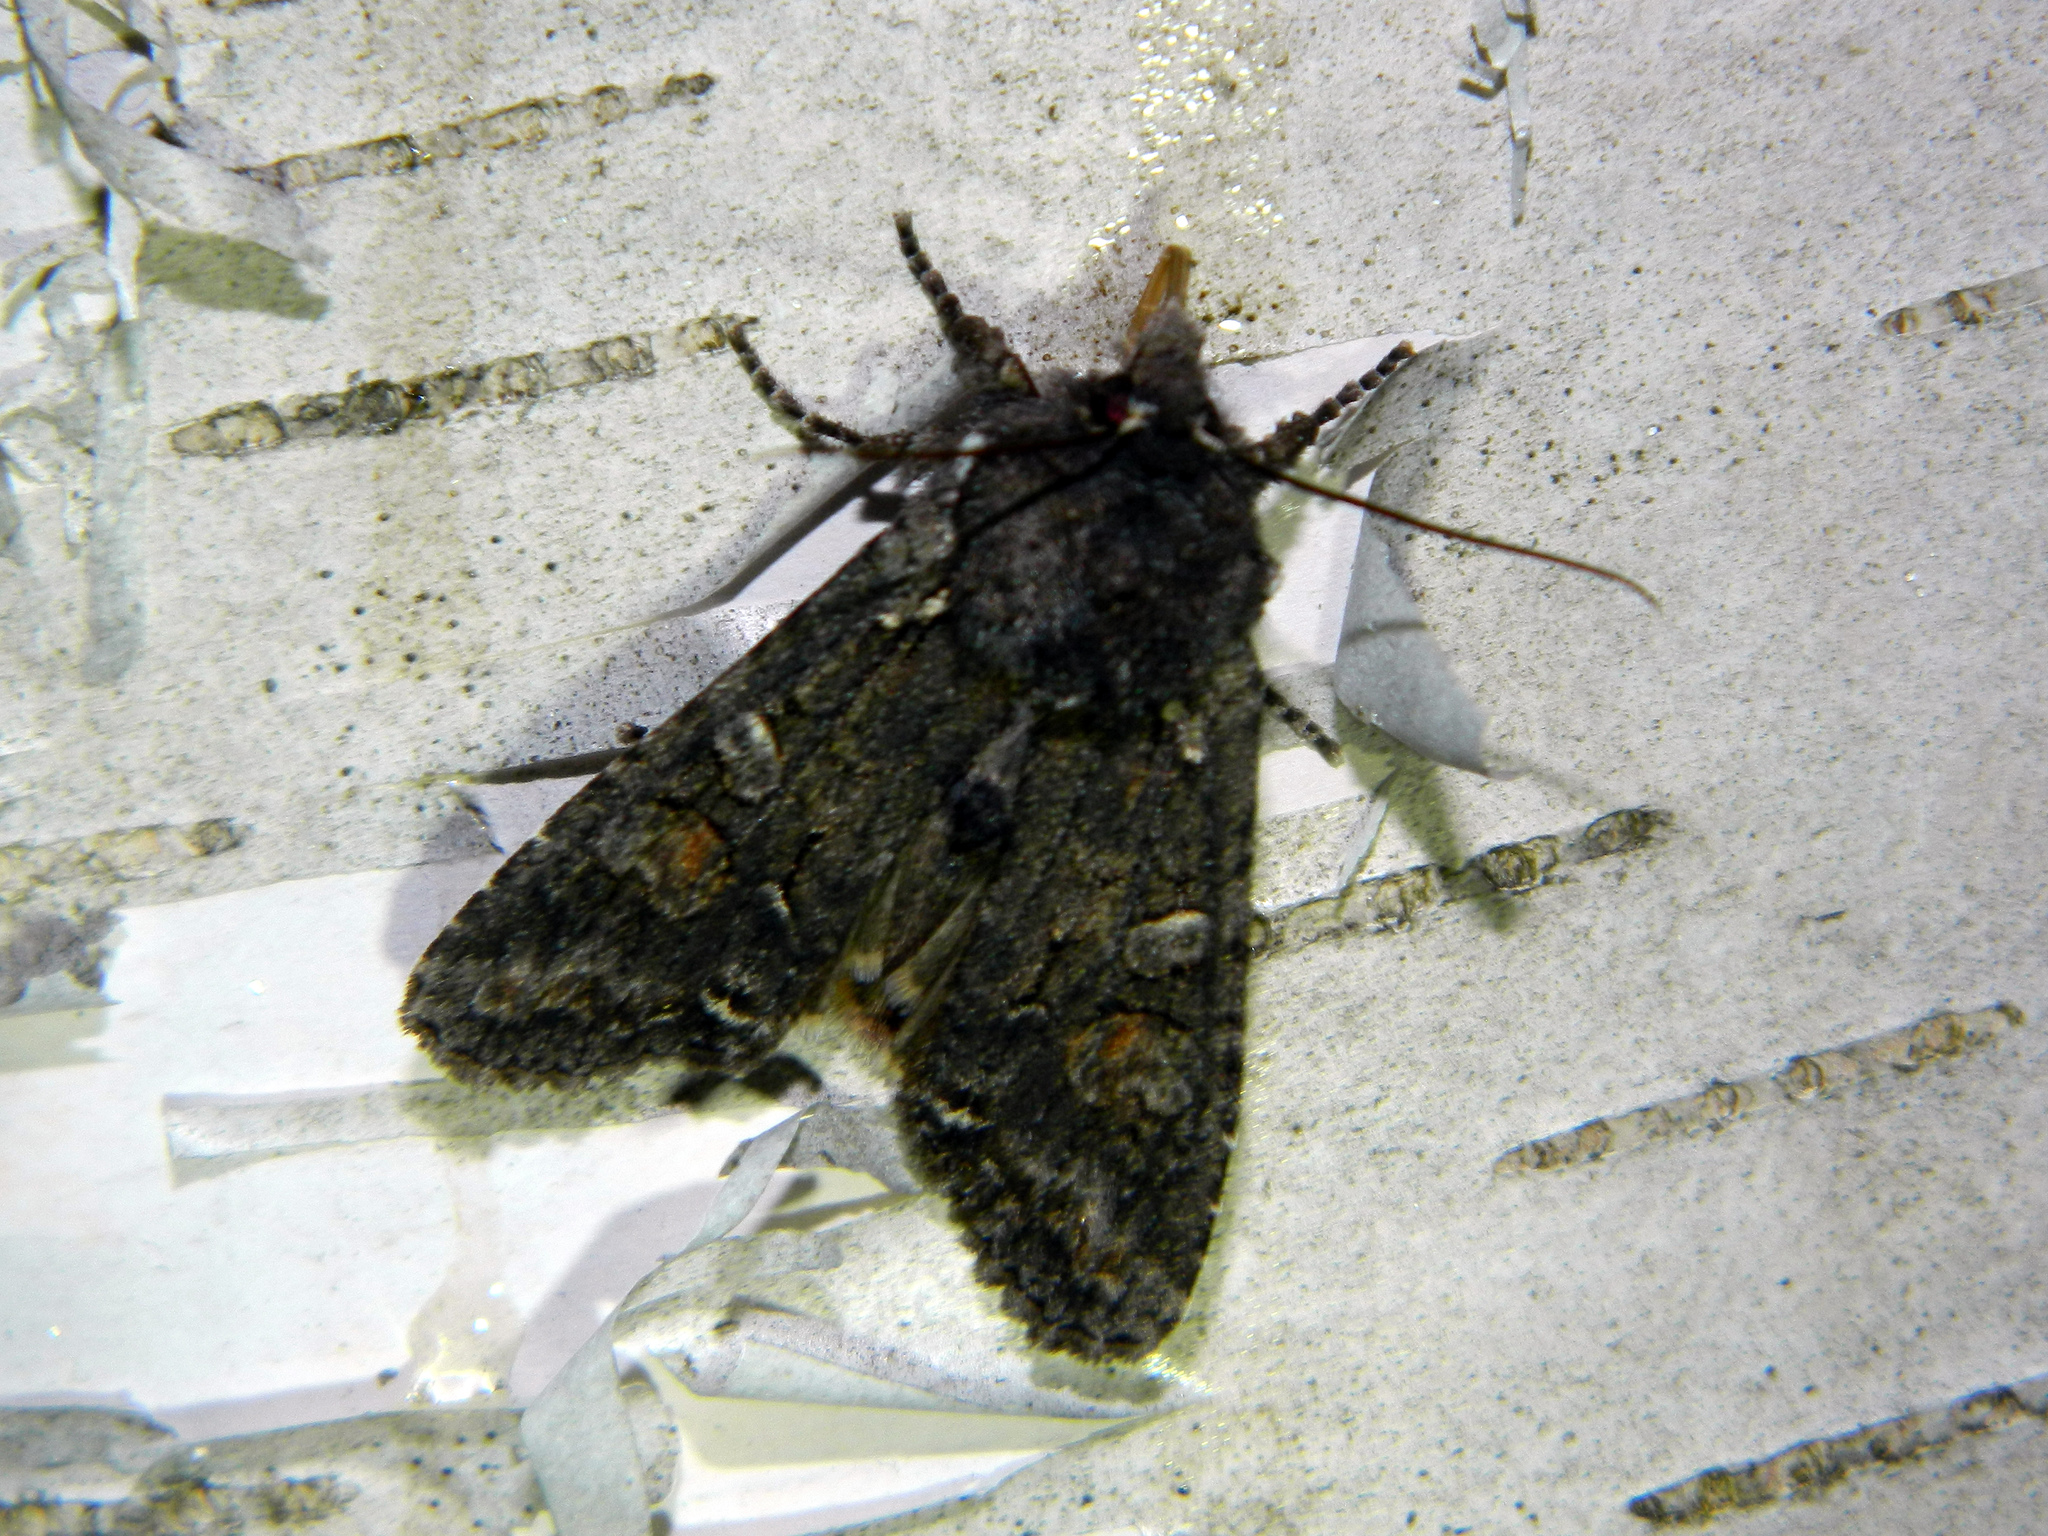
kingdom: Animalia
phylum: Arthropoda
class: Insecta
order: Lepidoptera
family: Noctuidae
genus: Lithophane
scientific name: Lithophane pexata
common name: Plush-naped pinion moth
